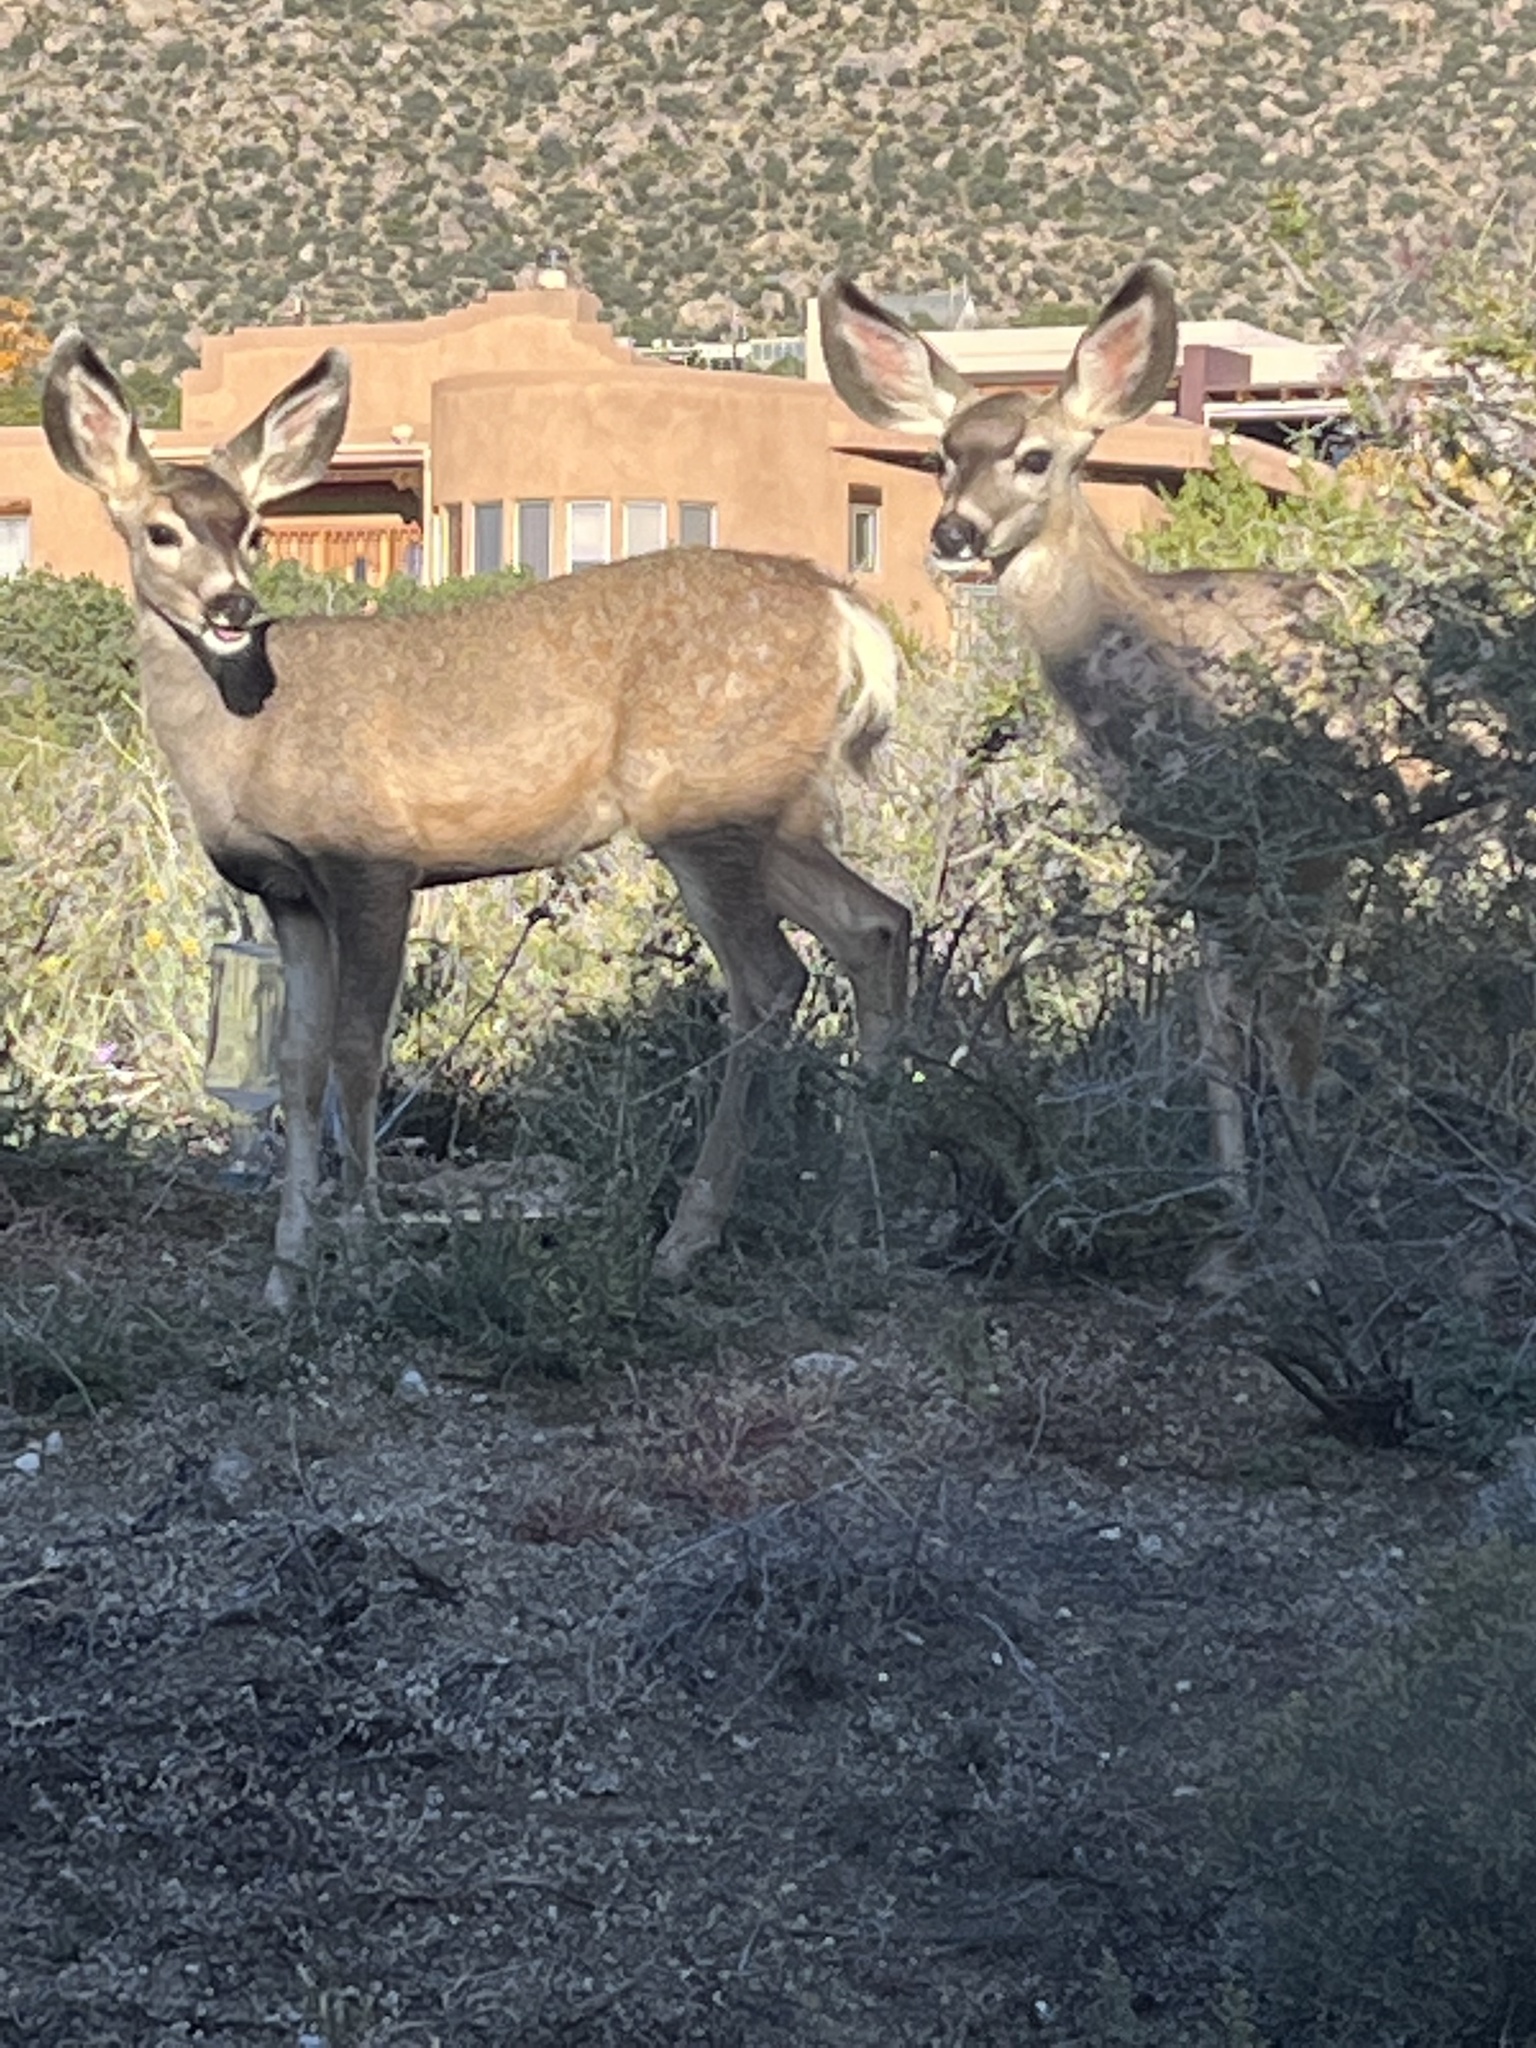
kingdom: Animalia
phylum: Chordata
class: Mammalia
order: Artiodactyla
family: Cervidae
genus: Odocoileus
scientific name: Odocoileus hemionus
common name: Mule deer
